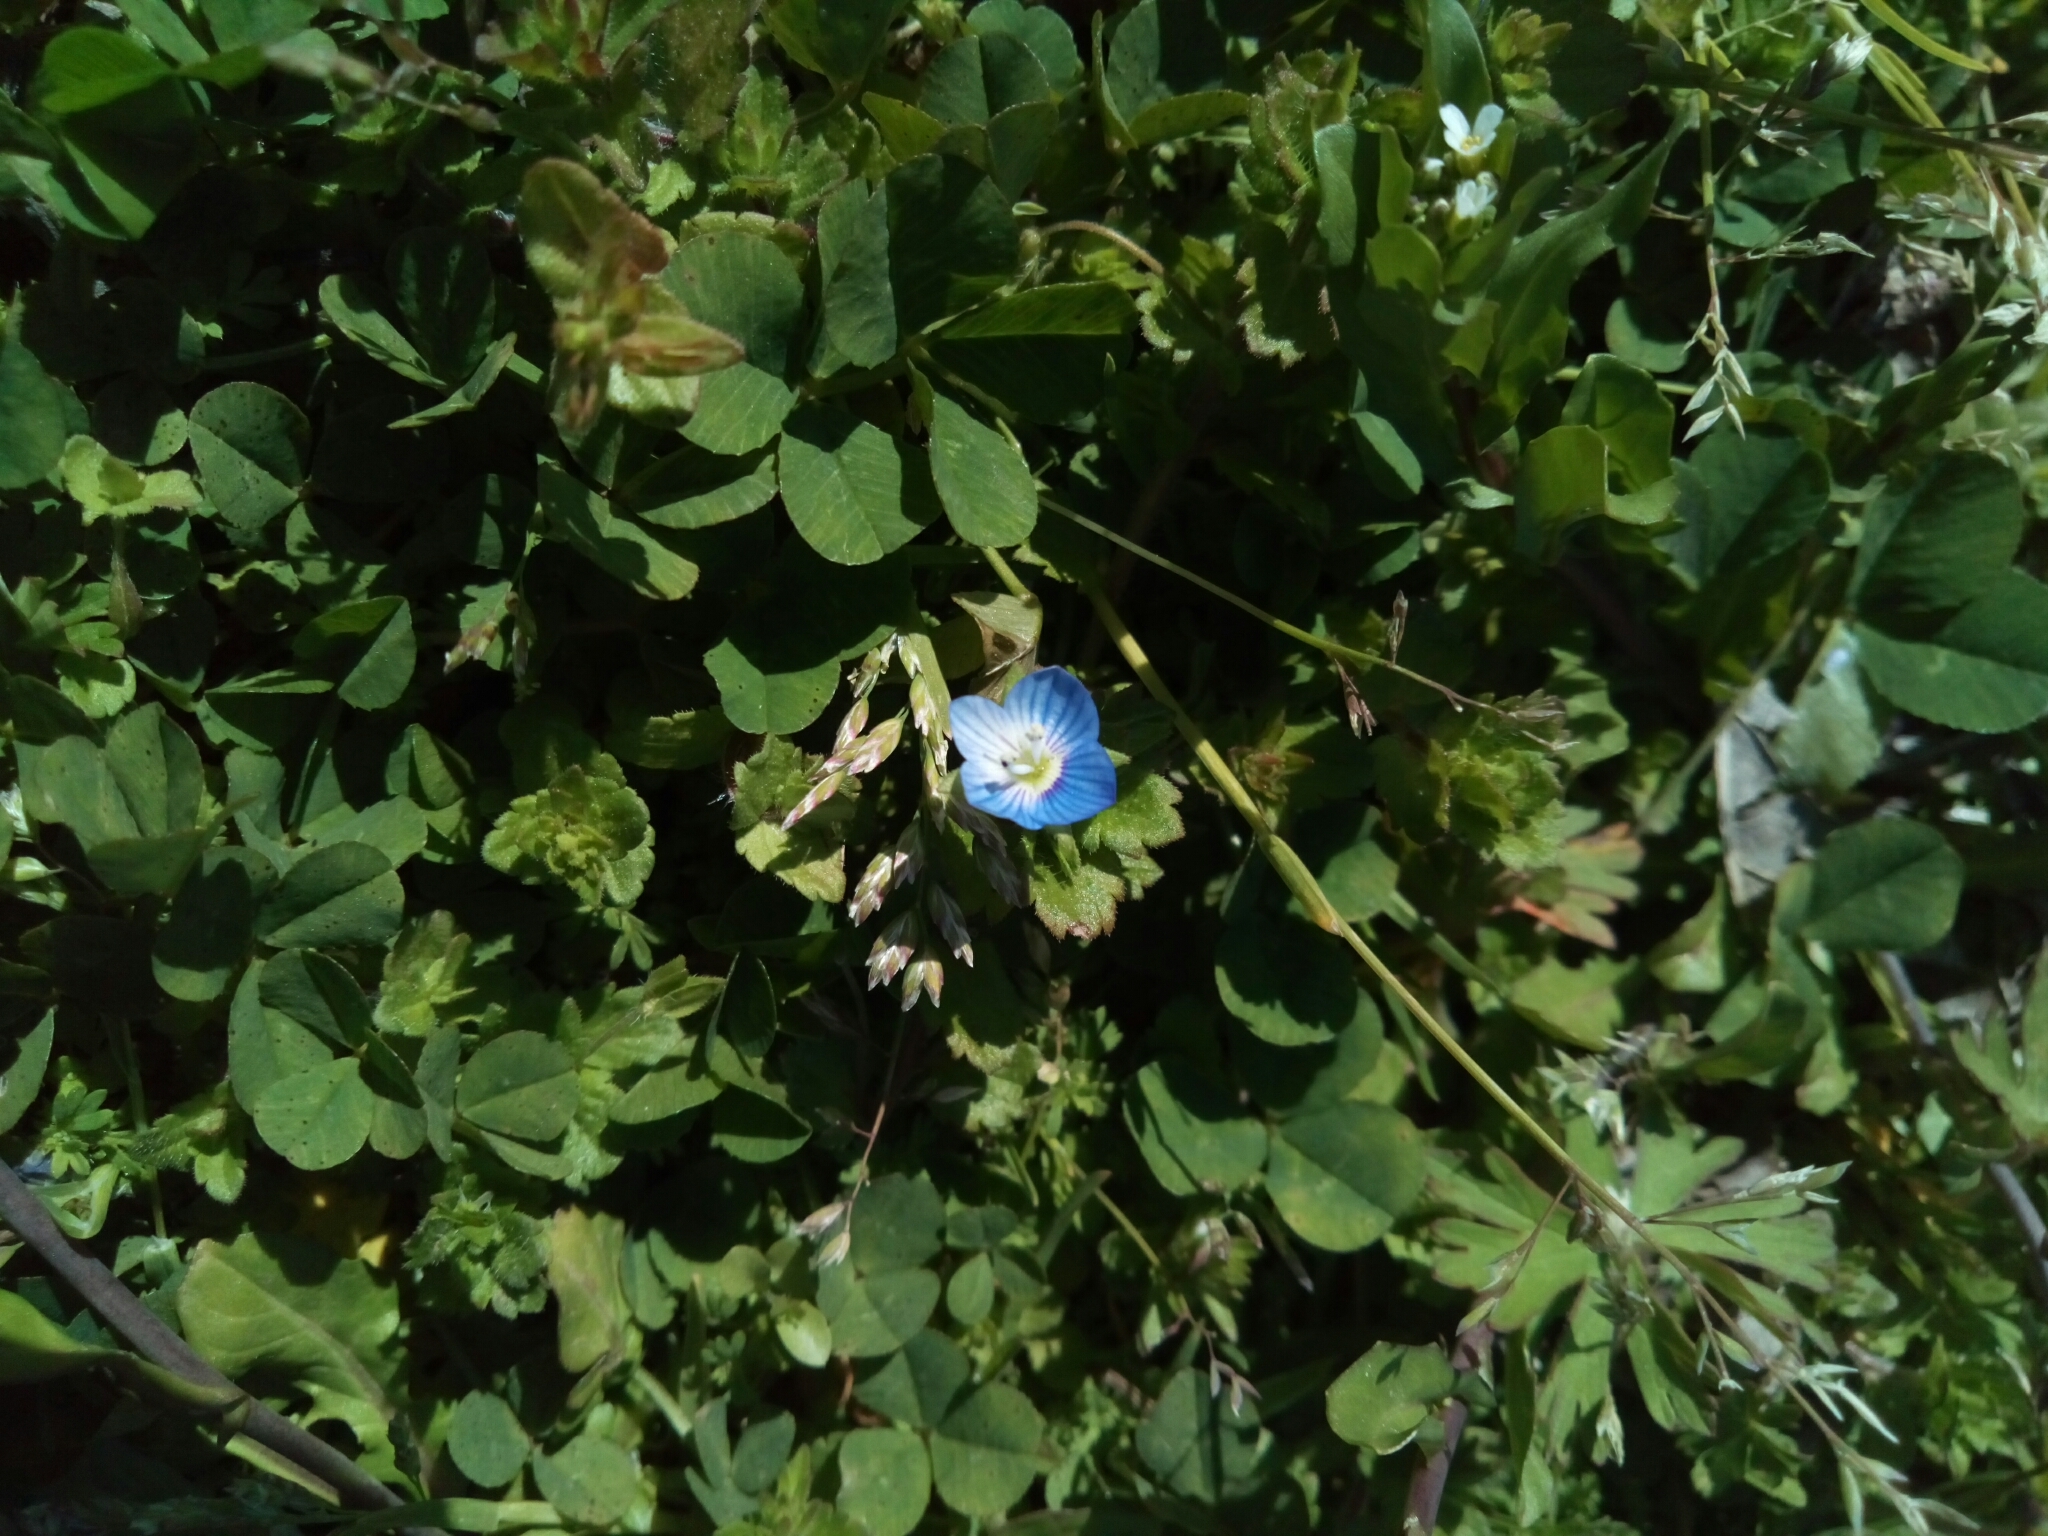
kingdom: Plantae
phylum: Tracheophyta
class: Magnoliopsida
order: Lamiales
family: Plantaginaceae
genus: Veronica
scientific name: Veronica persica
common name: Common field-speedwell
